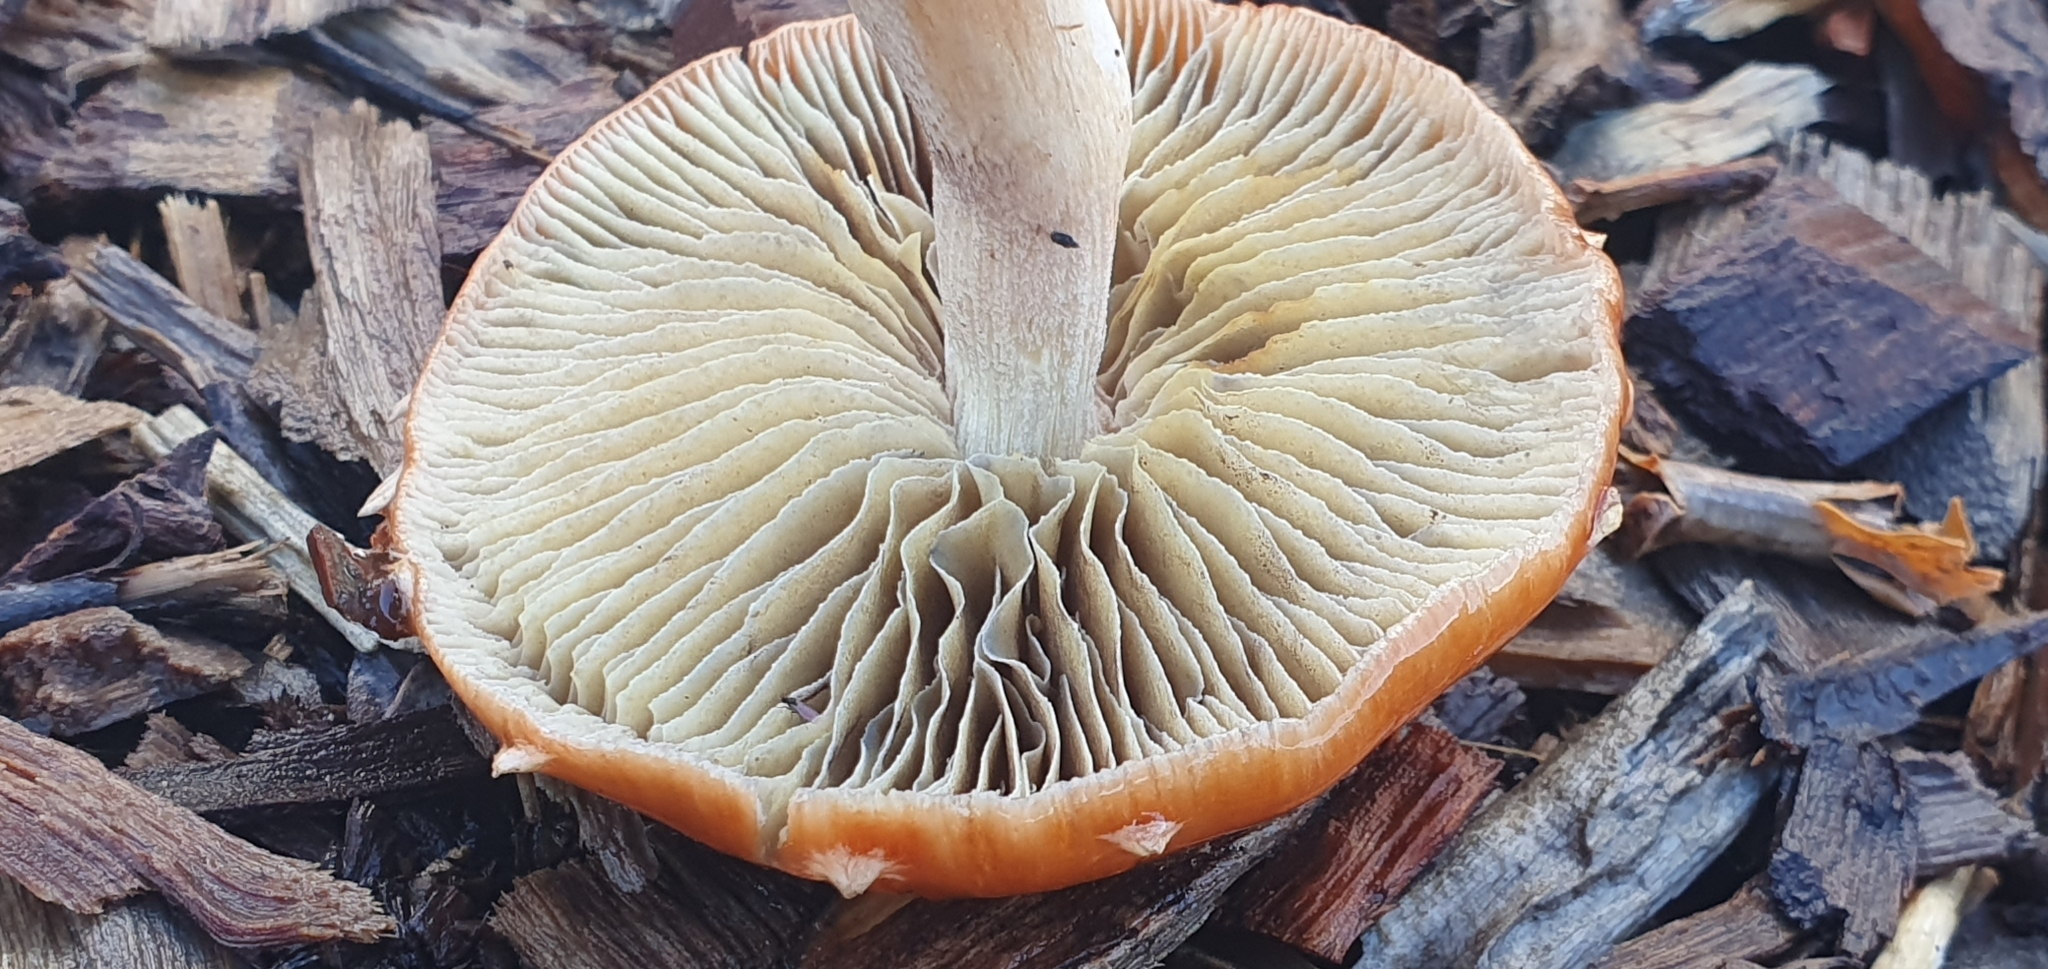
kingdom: Fungi
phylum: Basidiomycota
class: Agaricomycetes
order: Agaricales
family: Strophariaceae
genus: Leratiomyces
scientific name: Leratiomyces ceres
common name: Redlead roundhead
